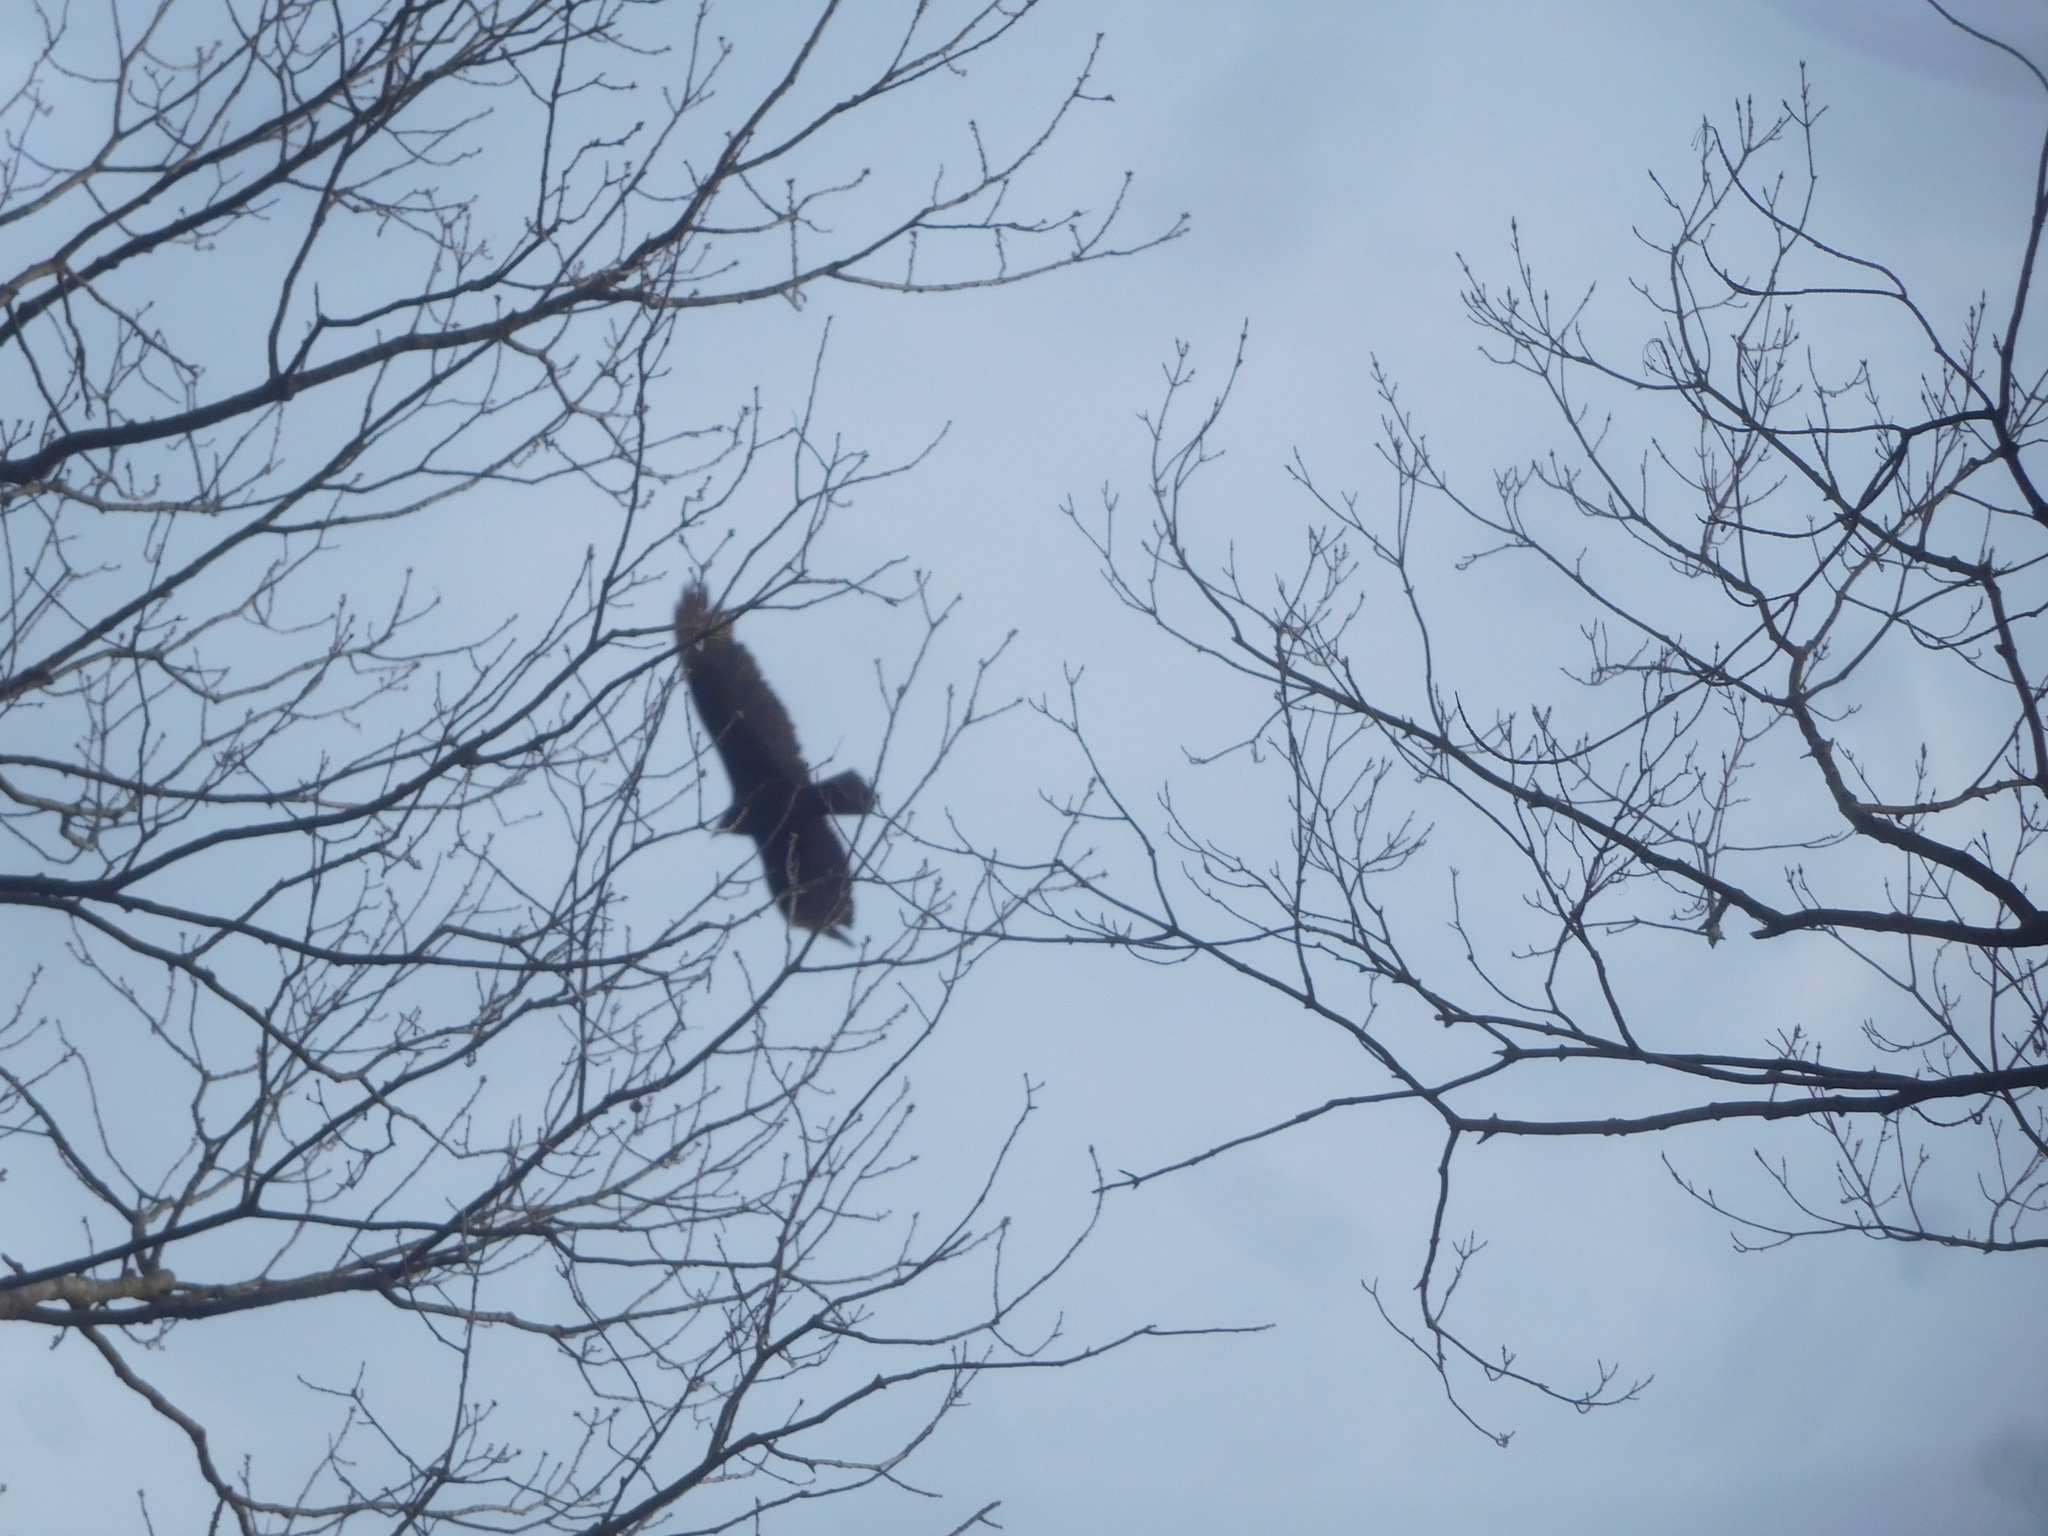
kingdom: Animalia
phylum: Chordata
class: Aves
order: Accipitriformes
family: Cathartidae
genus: Cathartes
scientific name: Cathartes aura
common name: Turkey vulture
